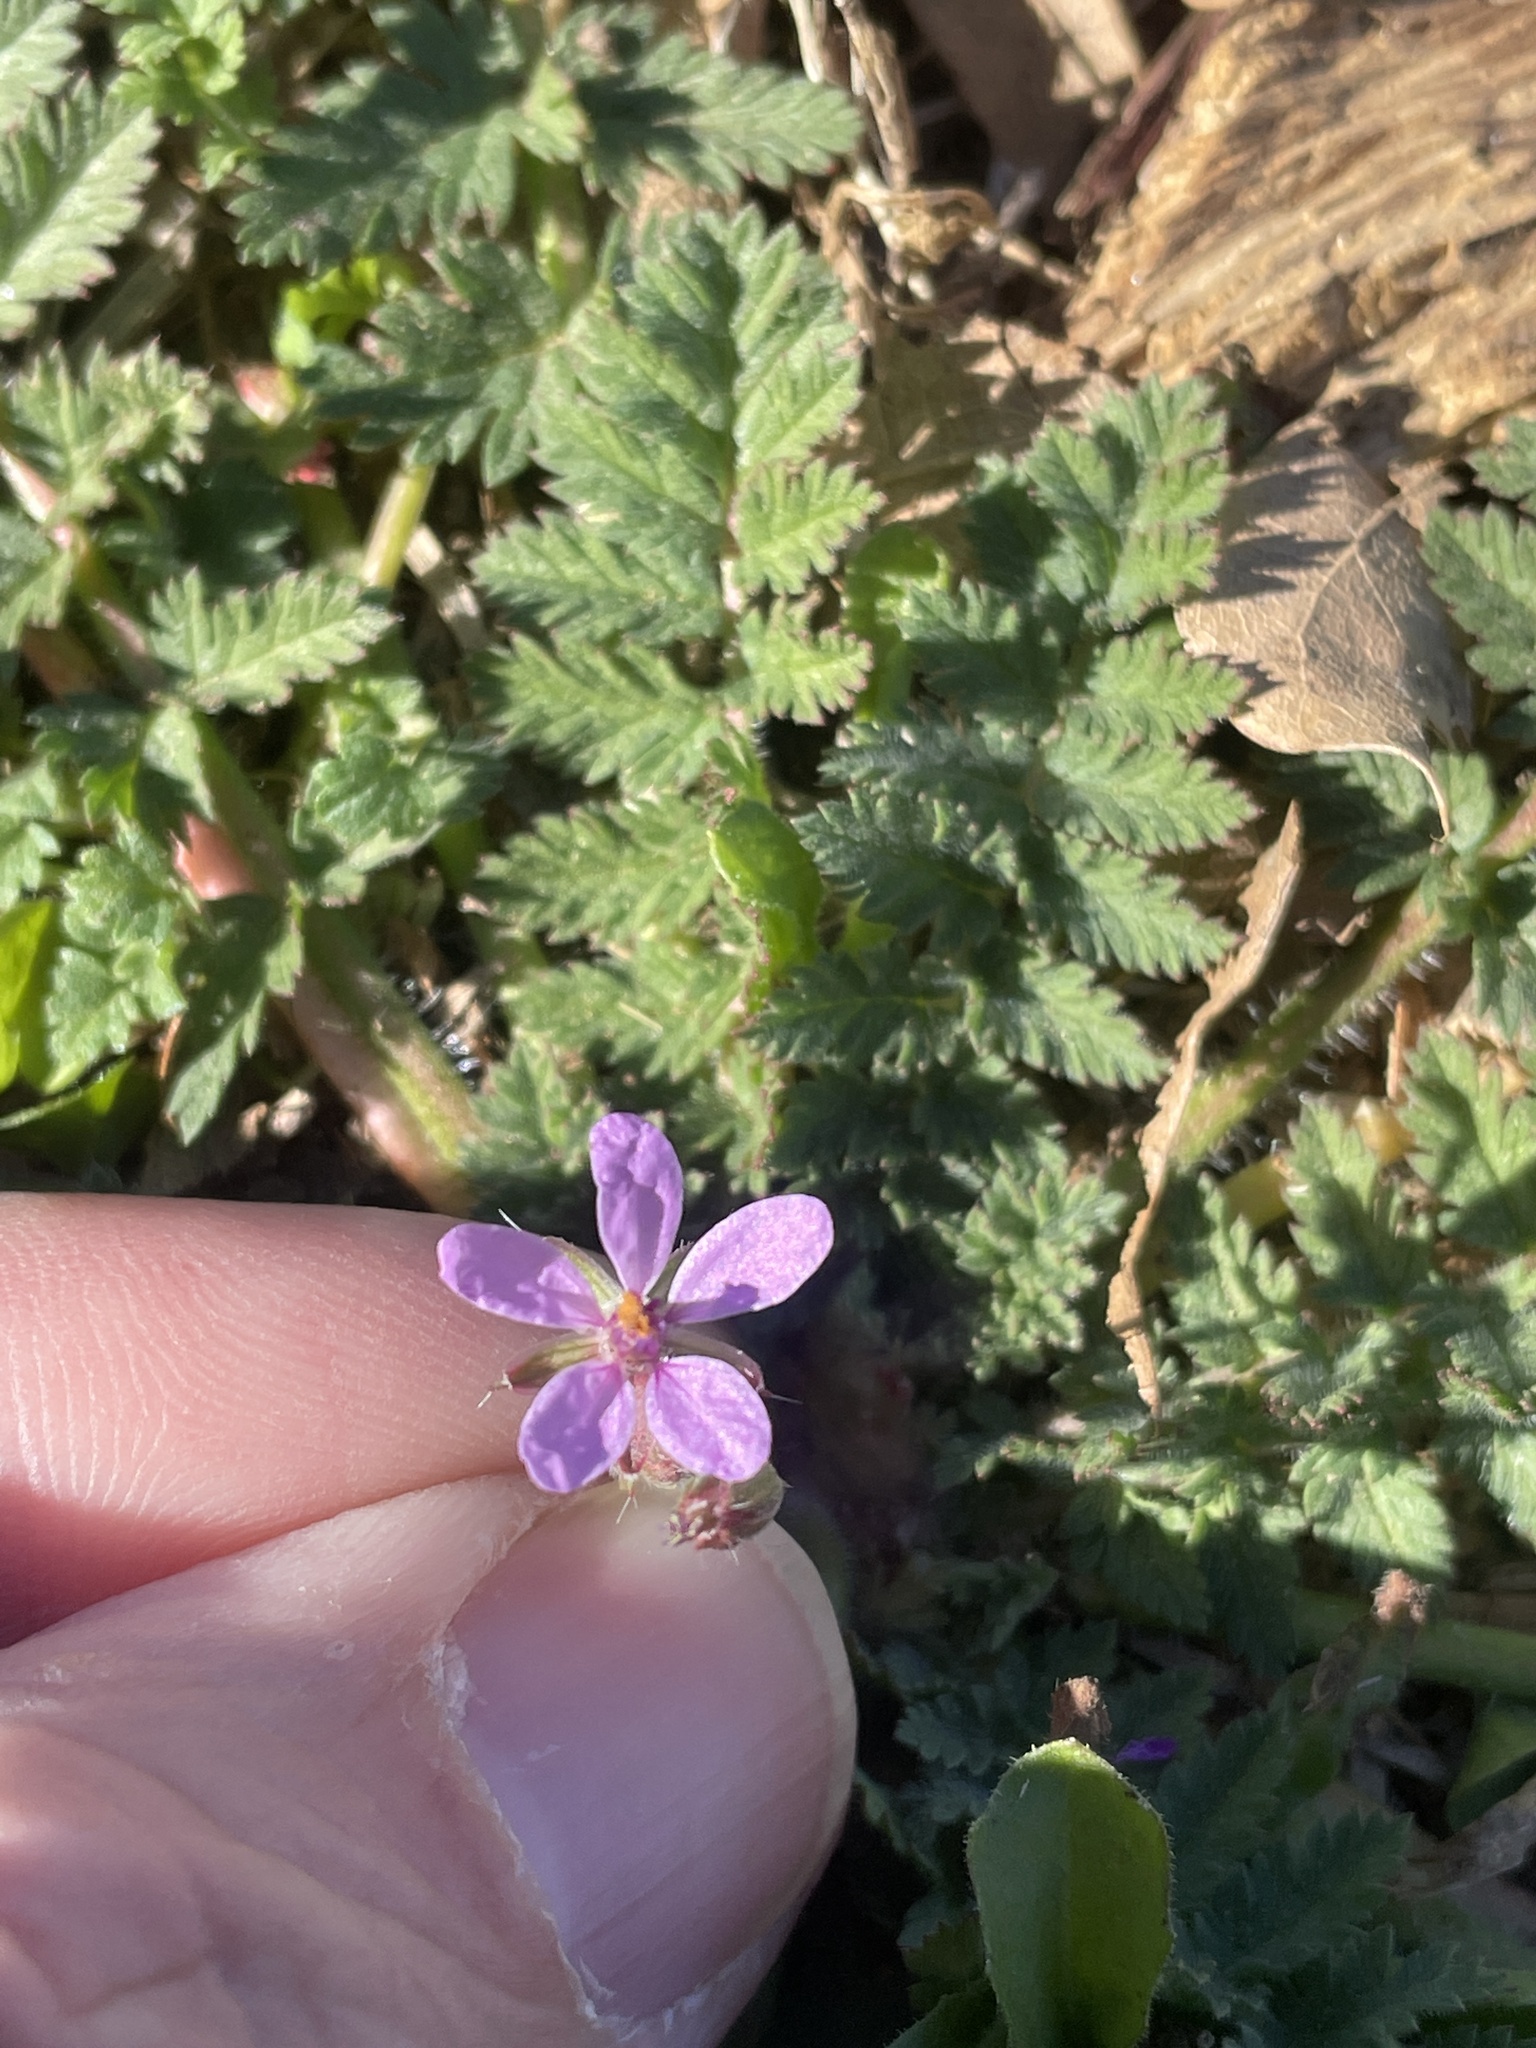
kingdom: Plantae
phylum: Tracheophyta
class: Magnoliopsida
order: Geraniales
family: Geraniaceae
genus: Erodium
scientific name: Erodium cicutarium
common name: Common stork's-bill
